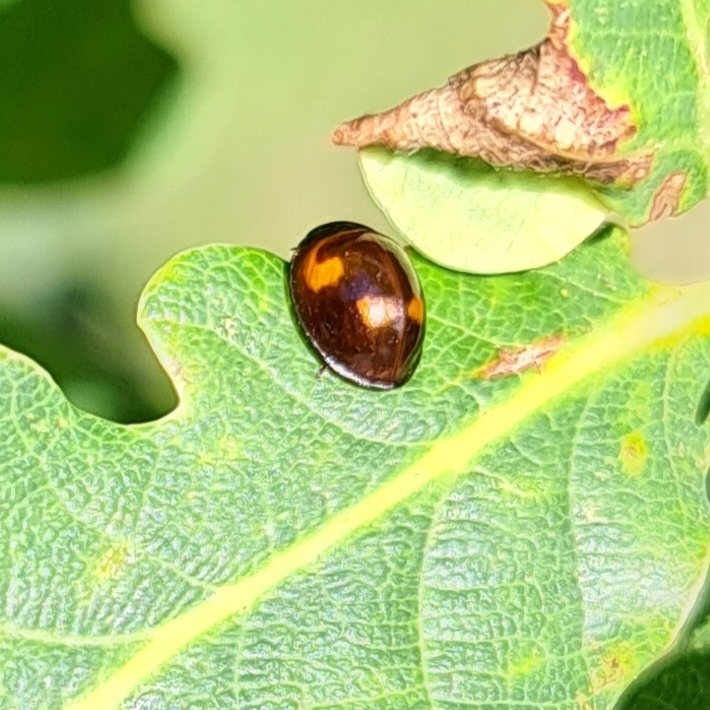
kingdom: Animalia
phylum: Arthropoda
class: Insecta
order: Coleoptera
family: Coccinellidae
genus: Brumus
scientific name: Brumus quadripustulatus
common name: Ladybird beetle
